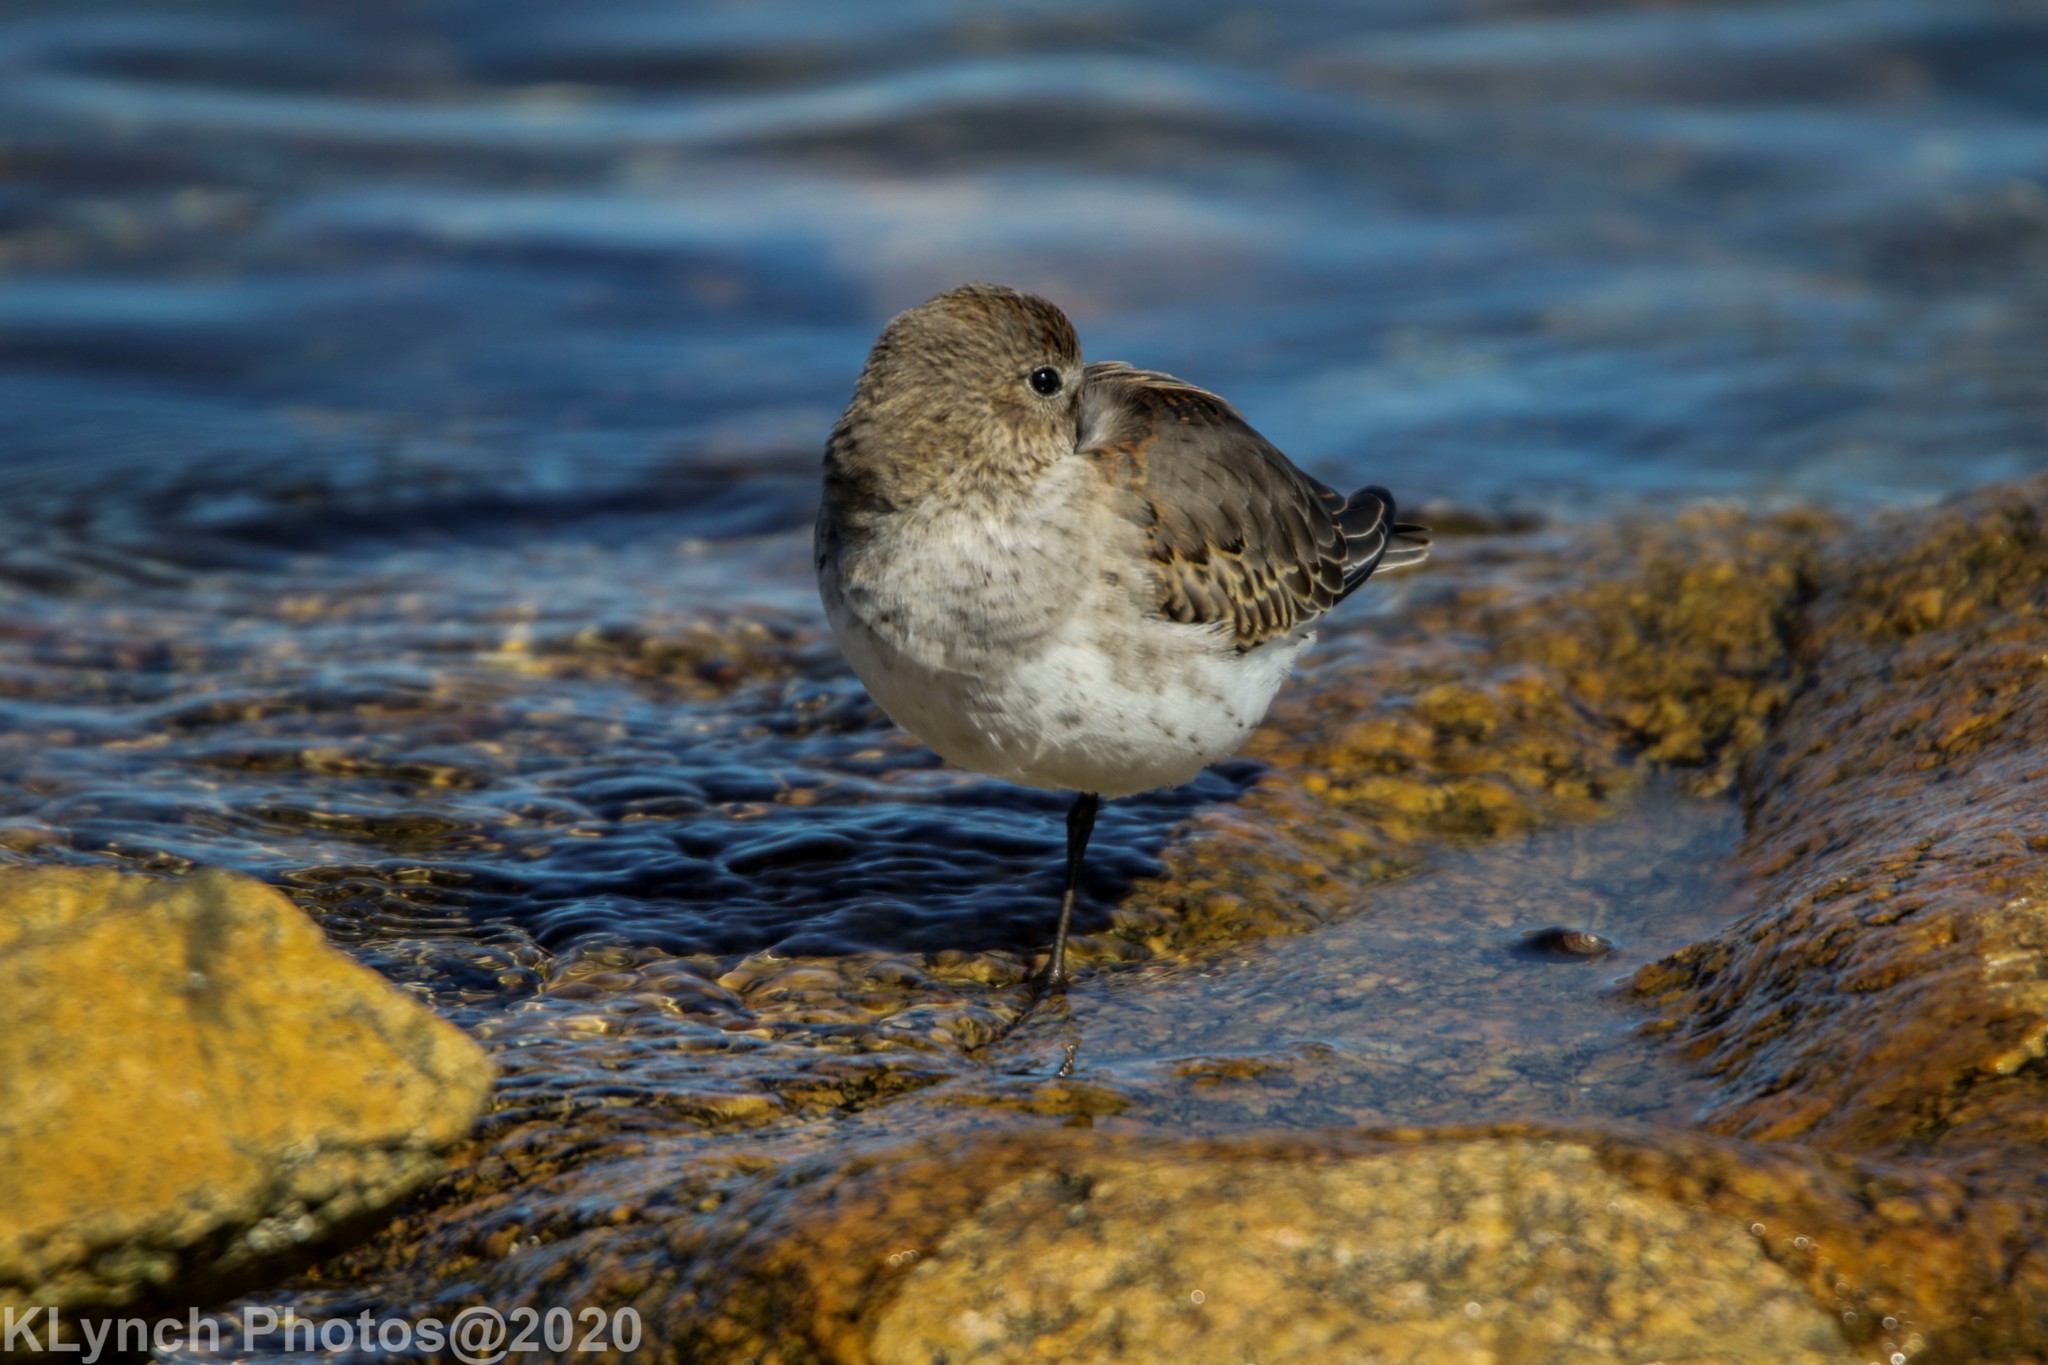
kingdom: Animalia
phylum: Chordata
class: Aves
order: Charadriiformes
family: Scolopacidae
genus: Calidris
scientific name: Calidris alpina
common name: Dunlin
